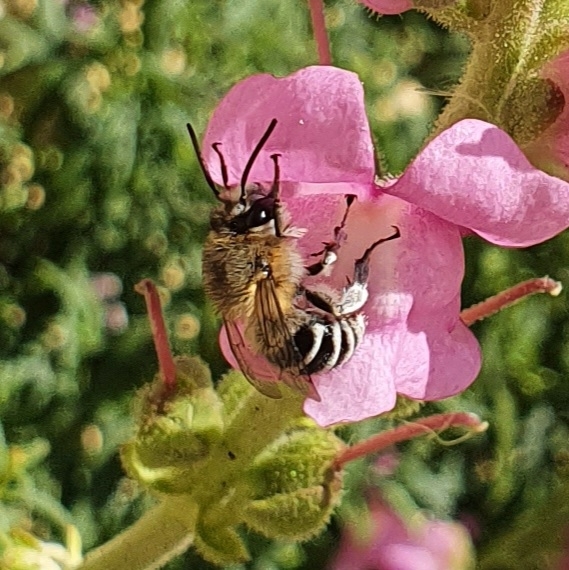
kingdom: Animalia
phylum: Arthropoda
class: Insecta
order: Hymenoptera
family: Apidae
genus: Anthophora
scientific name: Anthophora pubescens
